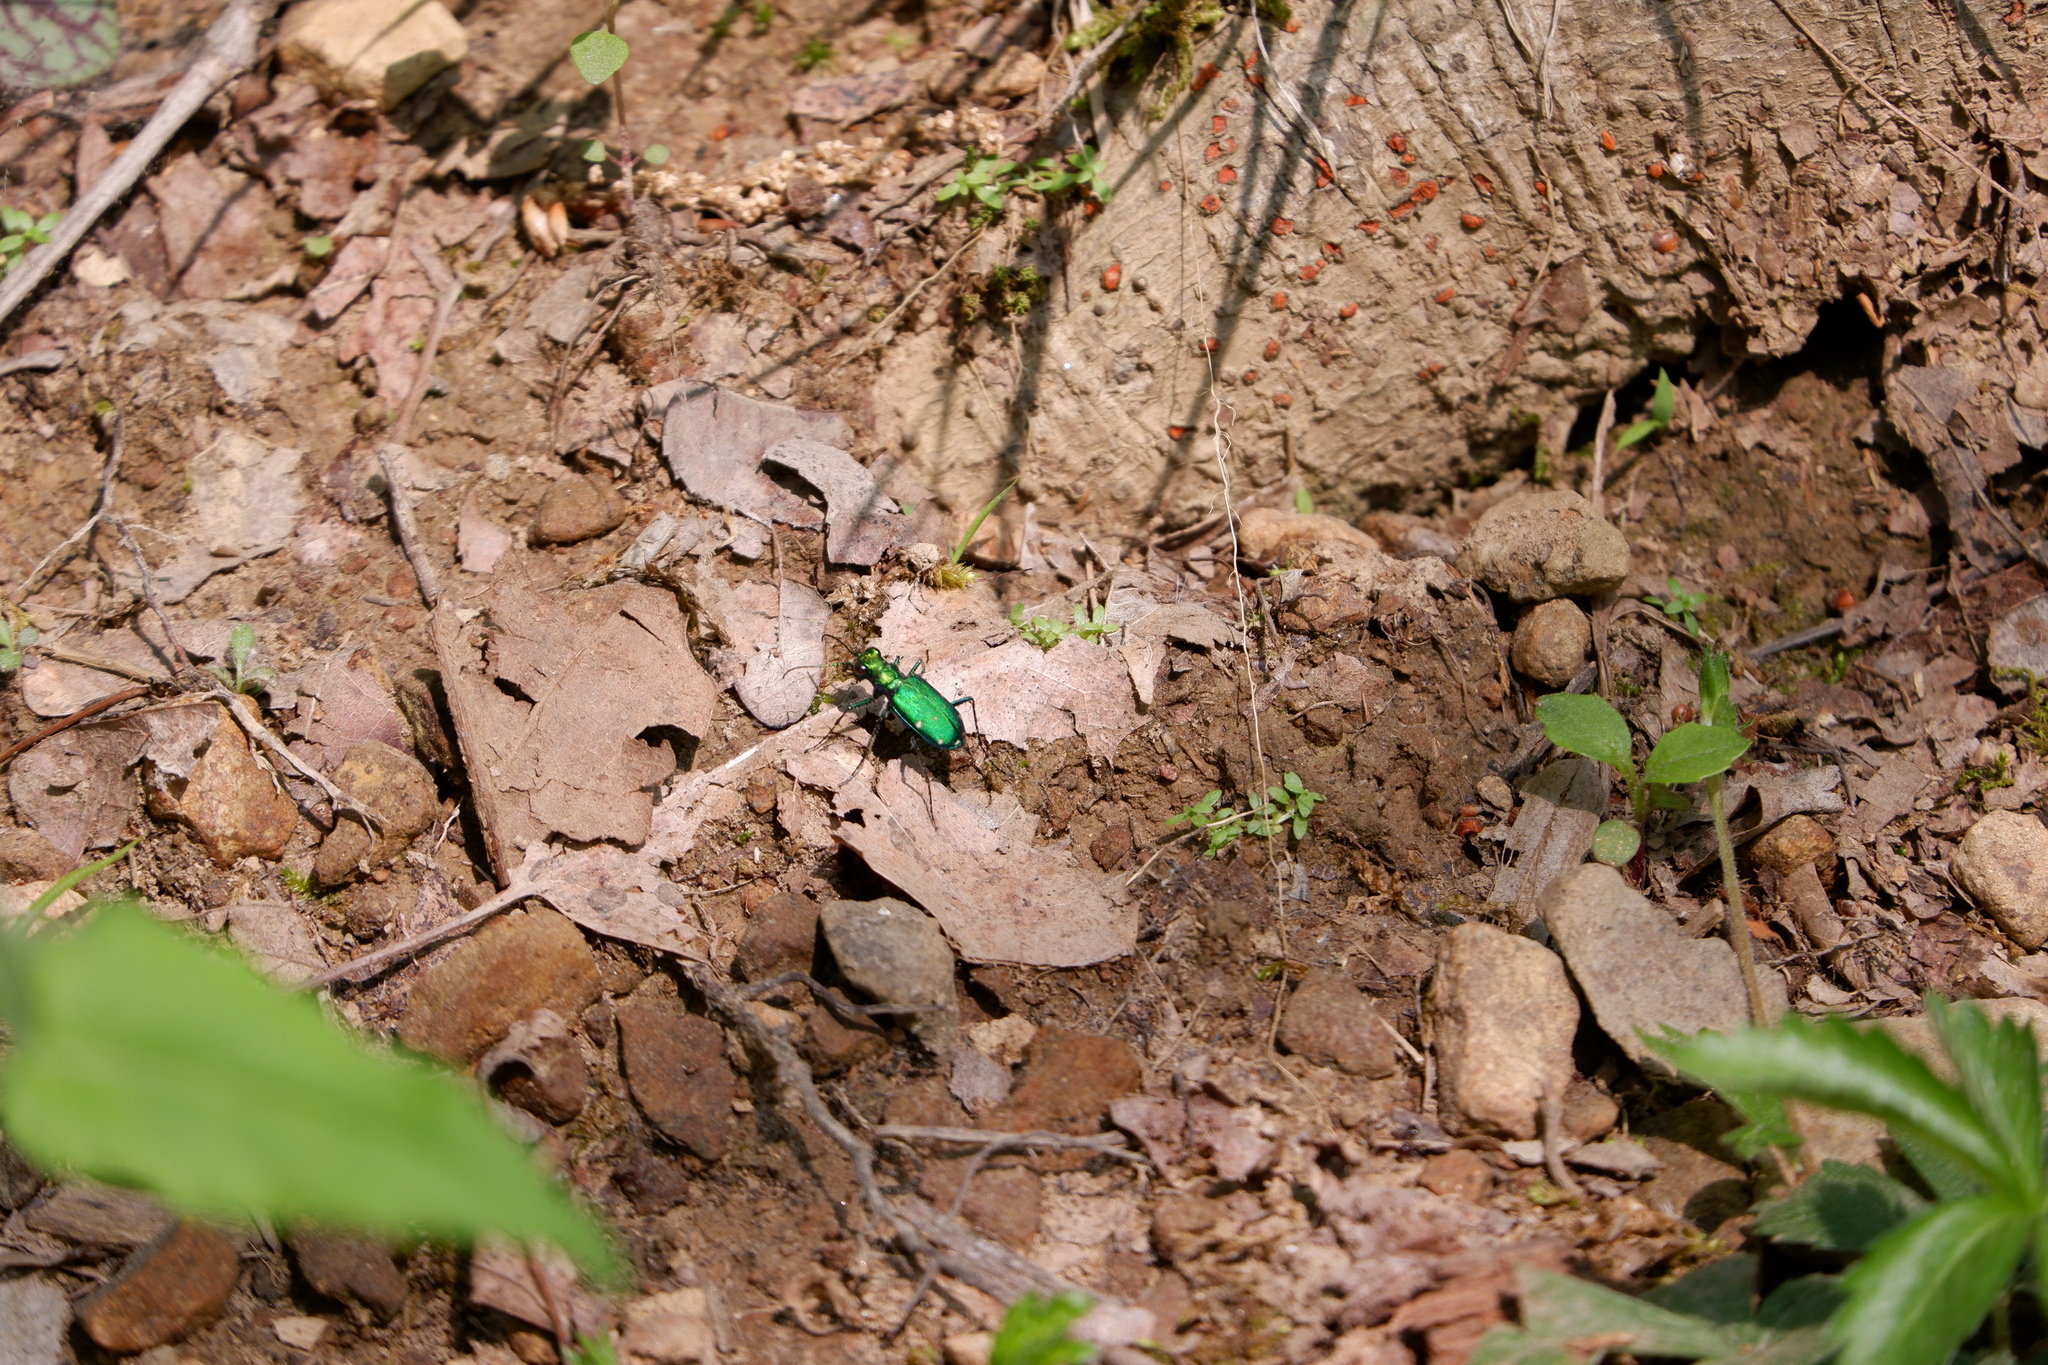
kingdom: Animalia
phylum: Arthropoda
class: Insecta
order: Coleoptera
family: Carabidae
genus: Cicindela
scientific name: Cicindela sexguttata
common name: Six-spotted tiger beetle
